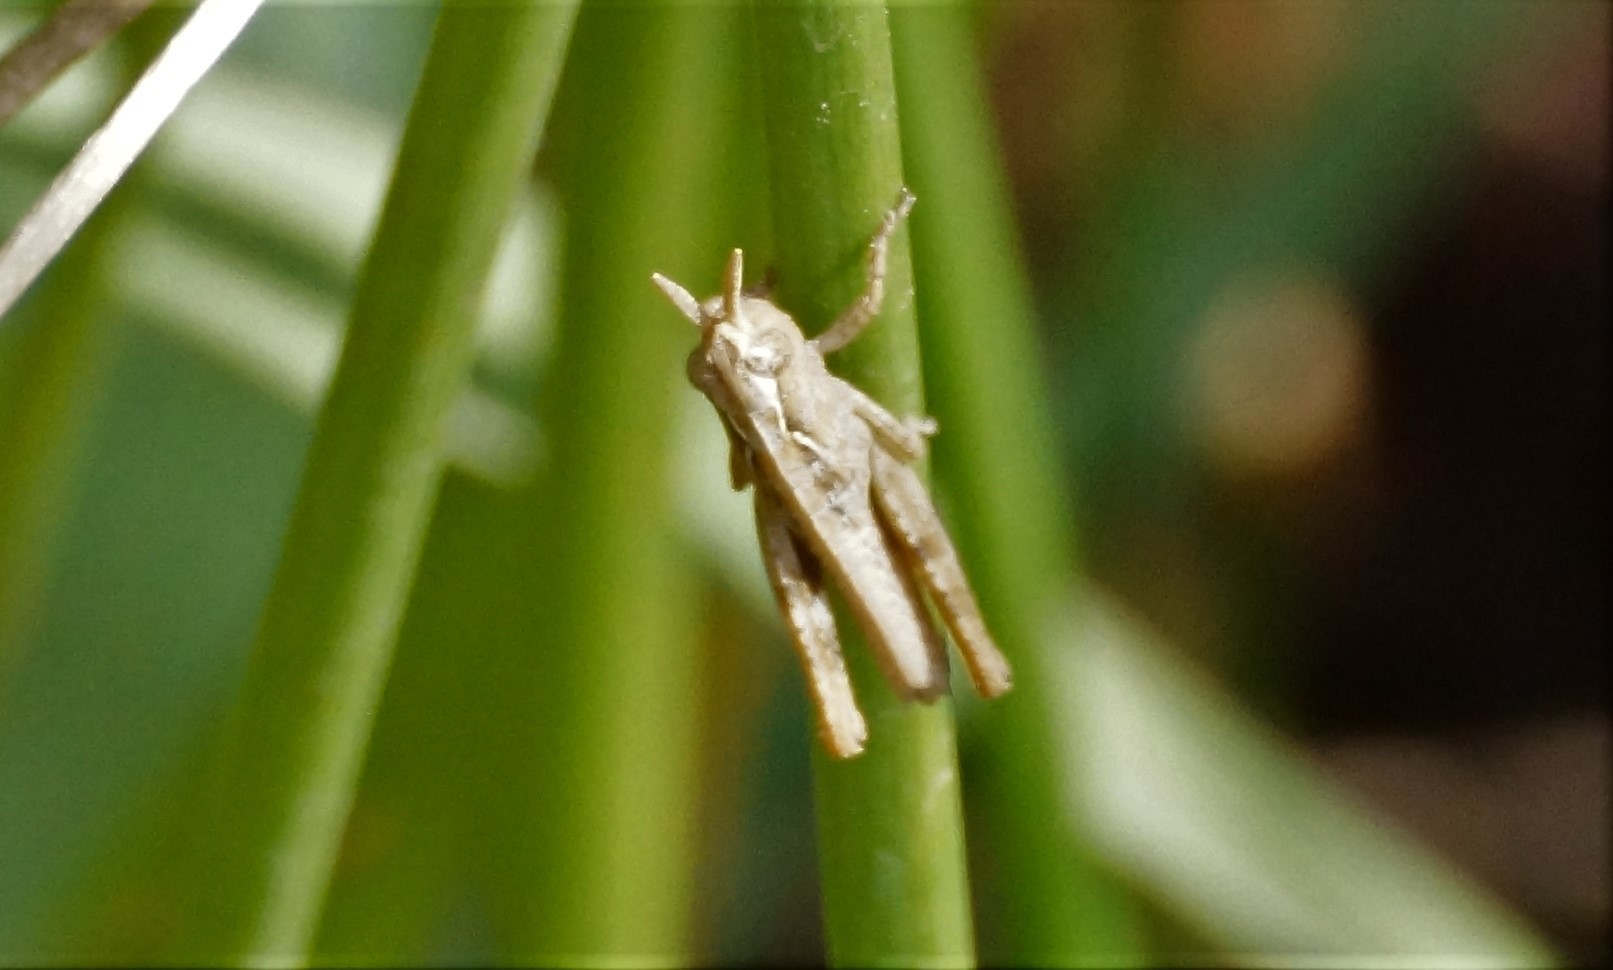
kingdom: Animalia
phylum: Arthropoda
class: Insecta
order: Orthoptera
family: Acrididae
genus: Austroicetes
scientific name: Austroicetes
